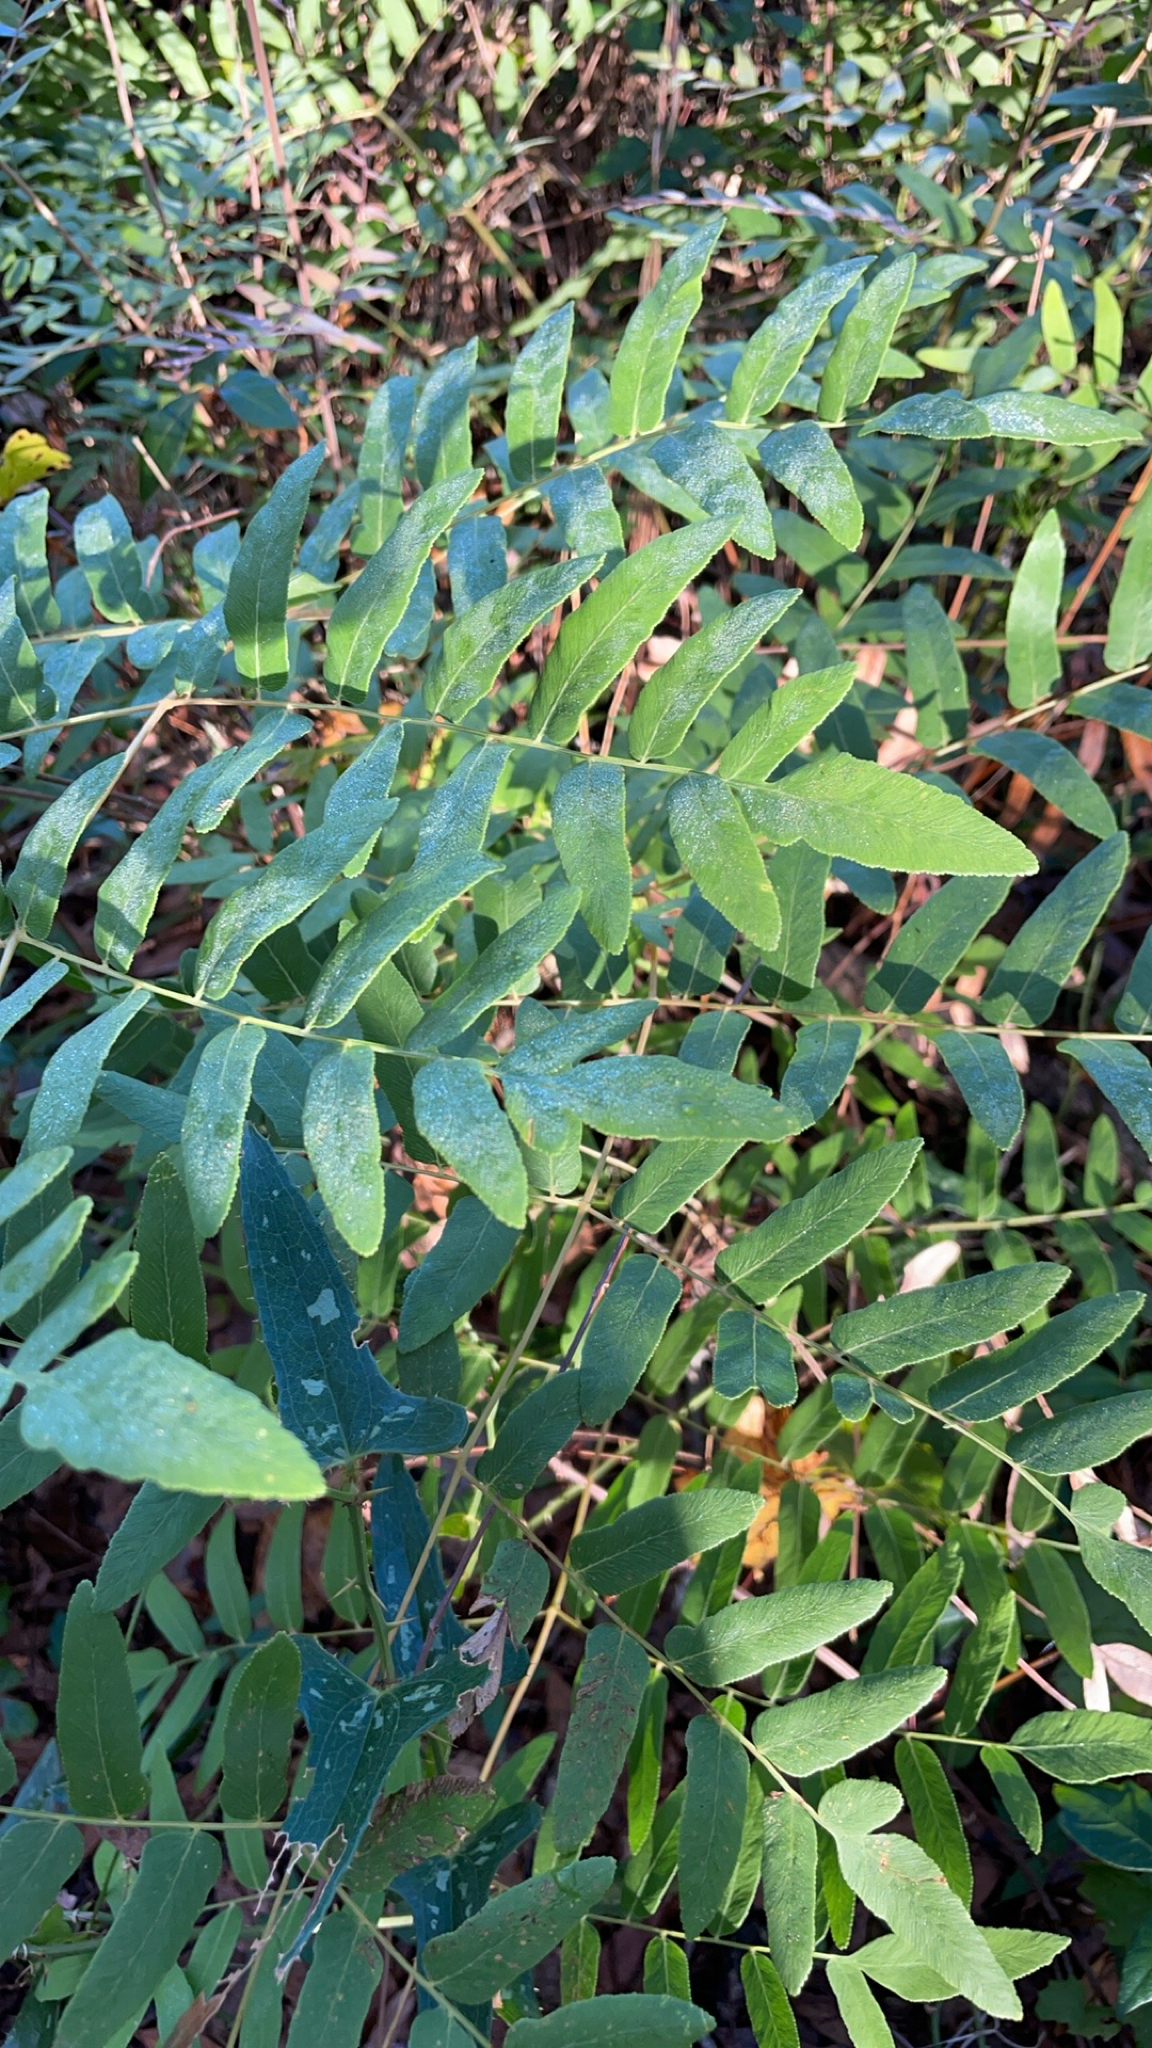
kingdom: Plantae
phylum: Tracheophyta
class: Polypodiopsida
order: Osmundales
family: Osmundaceae
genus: Osmunda
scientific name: Osmunda spectabilis
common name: American royal fern
